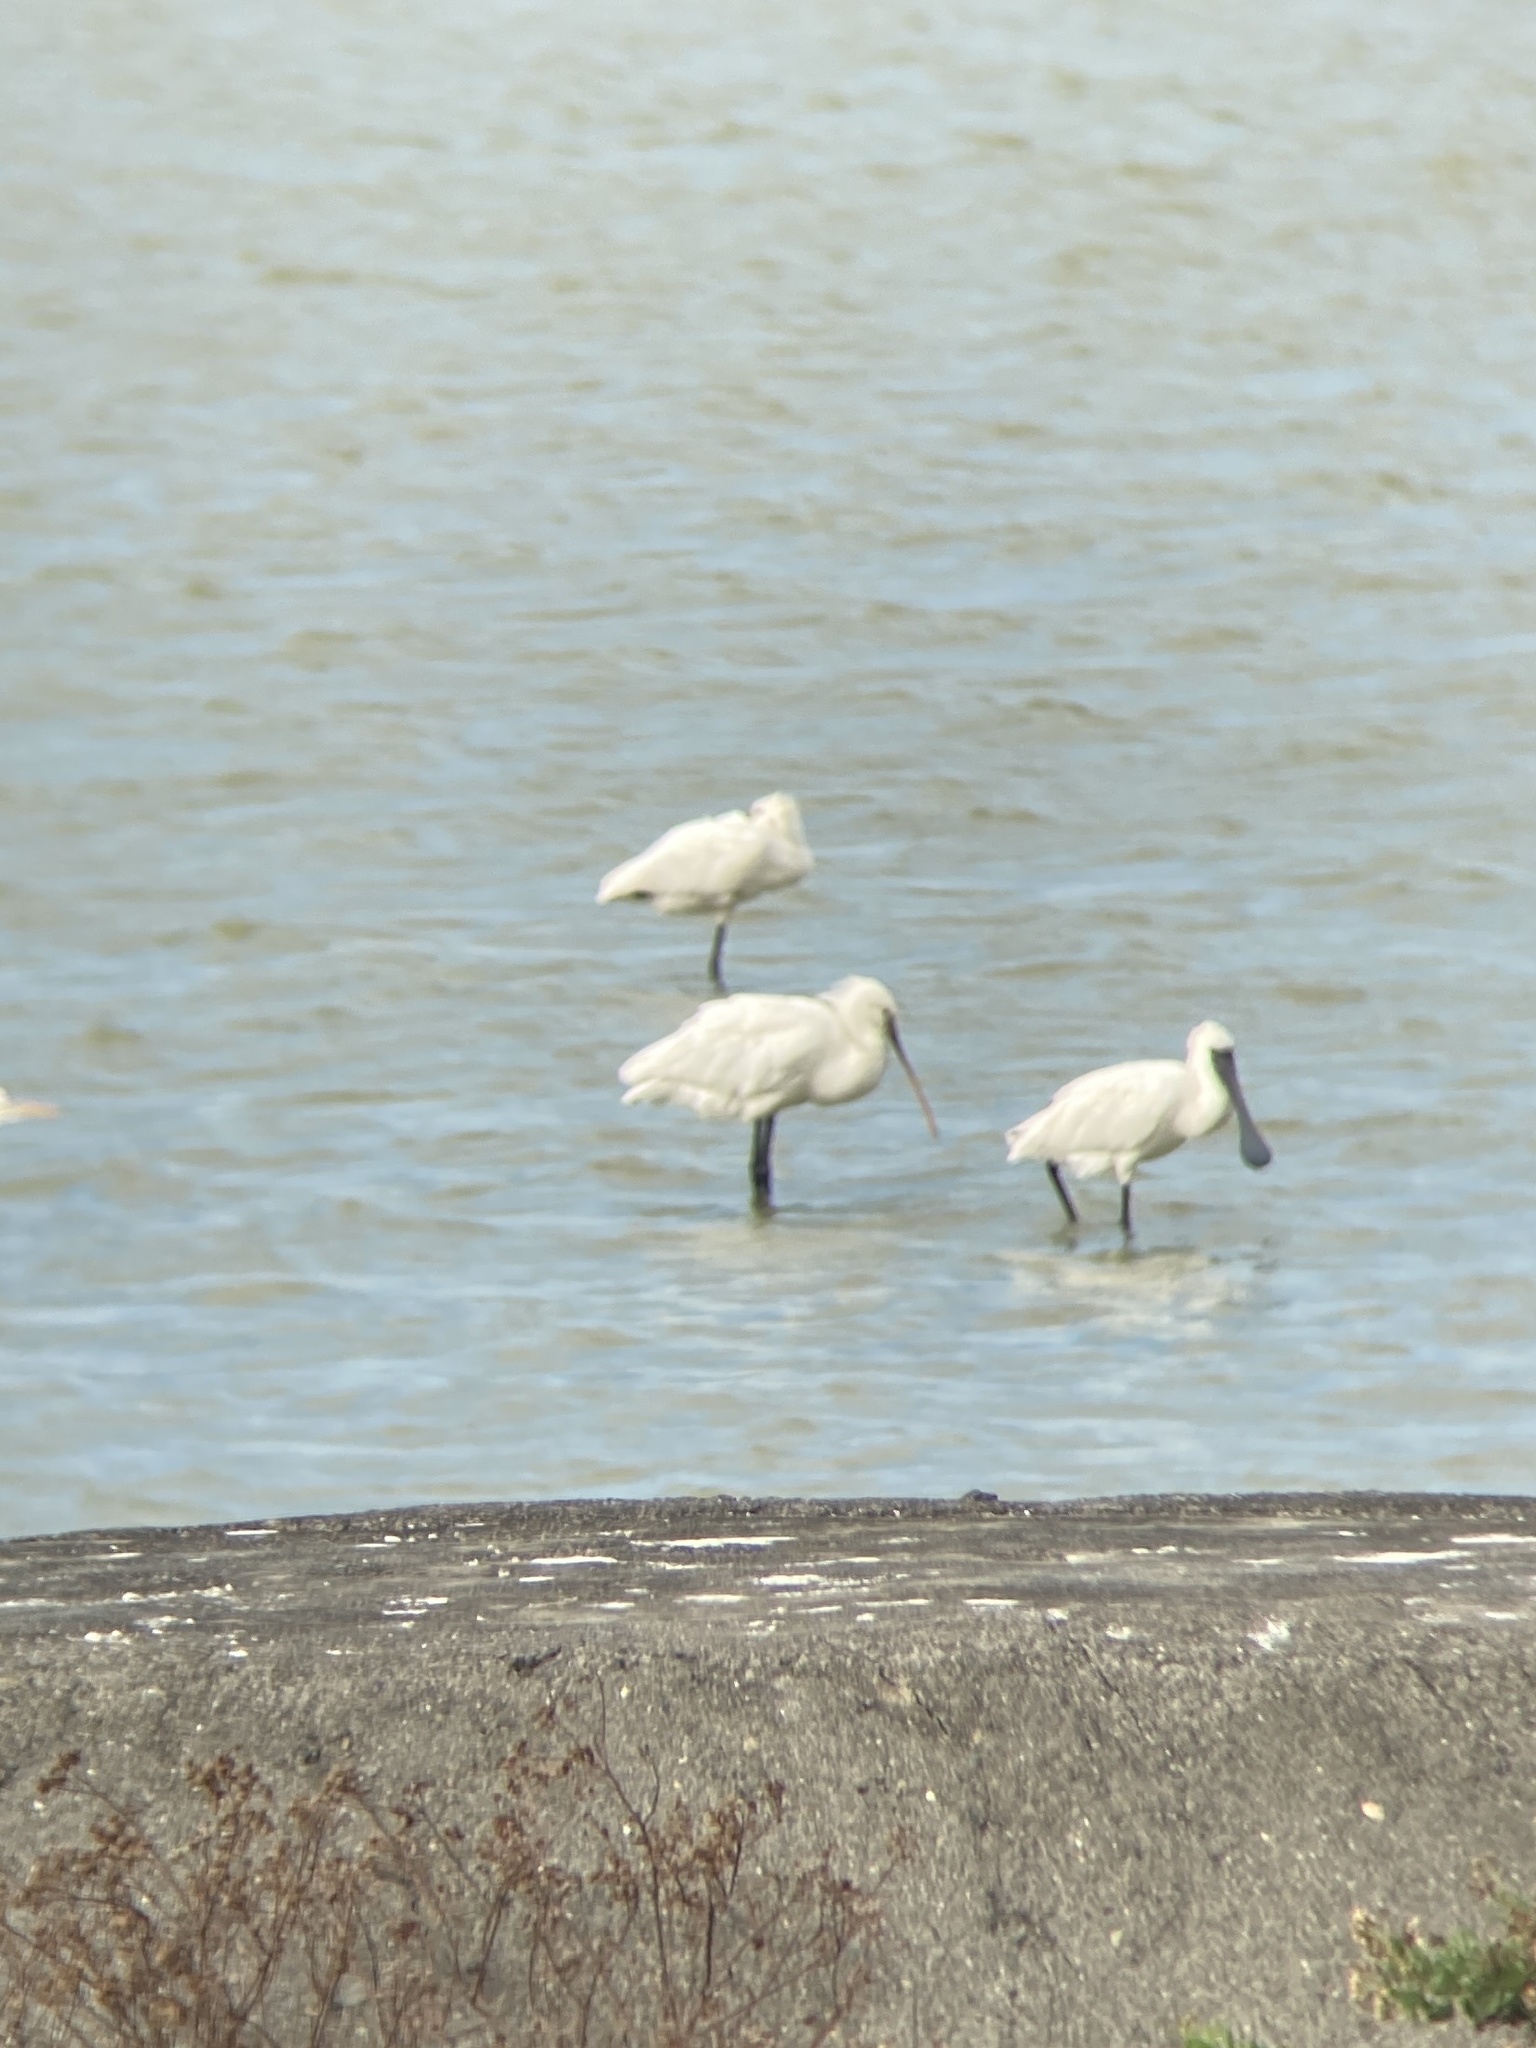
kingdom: Animalia
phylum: Chordata
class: Aves
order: Pelecaniformes
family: Threskiornithidae
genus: Platalea
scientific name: Platalea leucorodia
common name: Eurasian spoonbill
